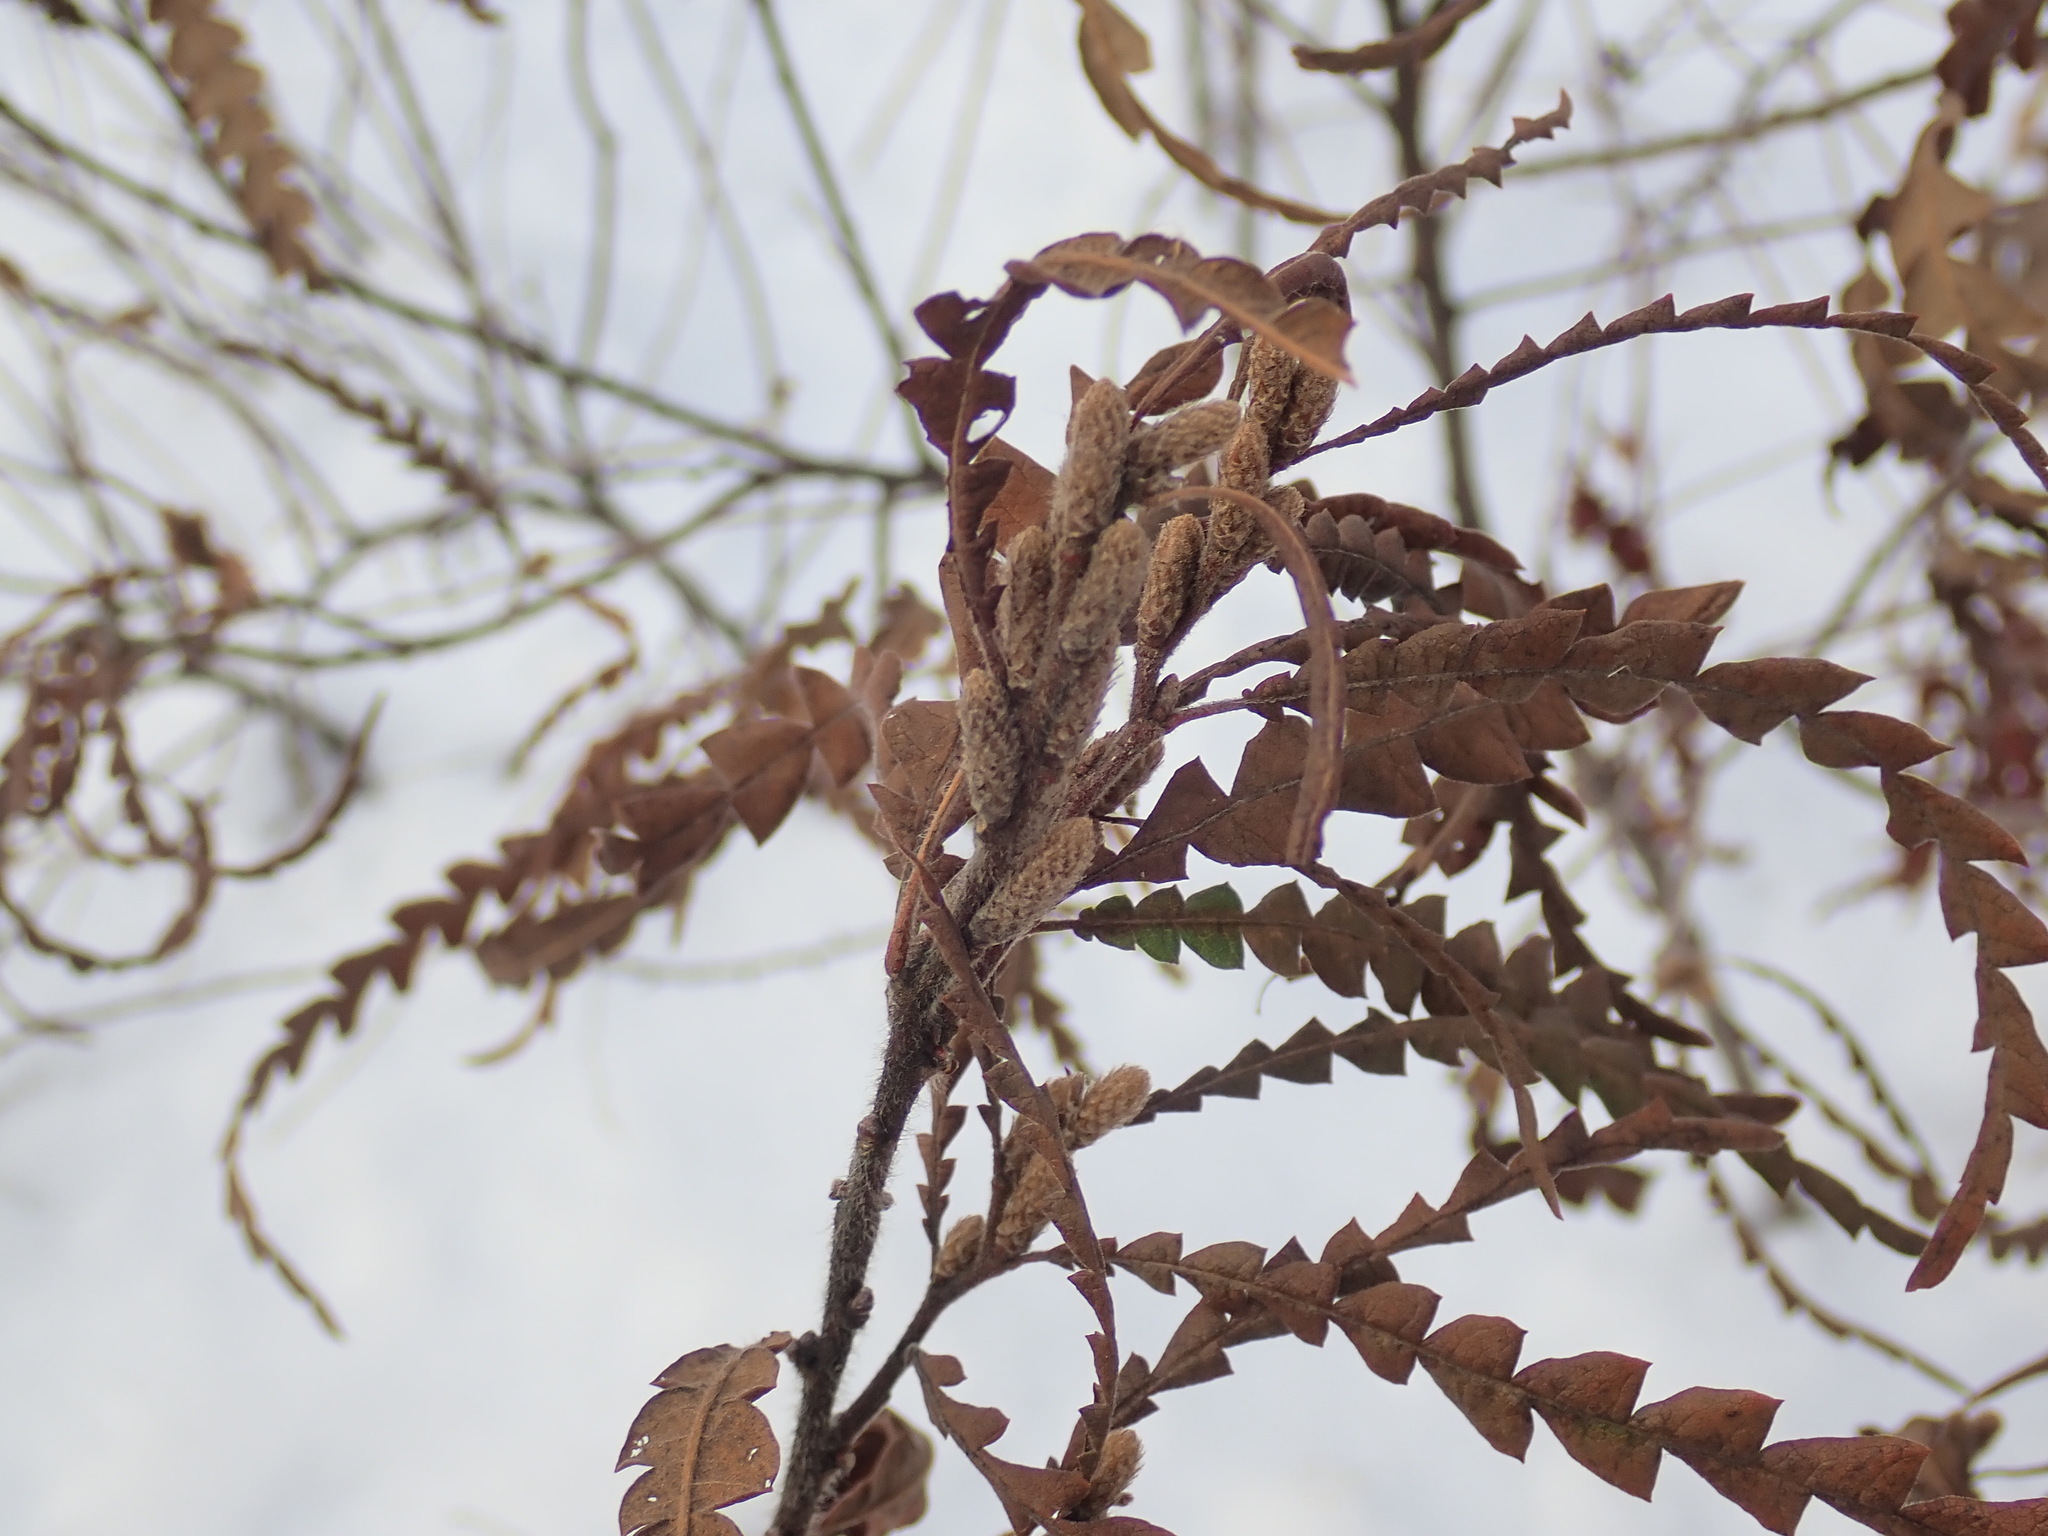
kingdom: Plantae
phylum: Tracheophyta
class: Magnoliopsida
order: Fagales
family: Myricaceae
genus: Comptonia
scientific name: Comptonia peregrina
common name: Sweet-fern
